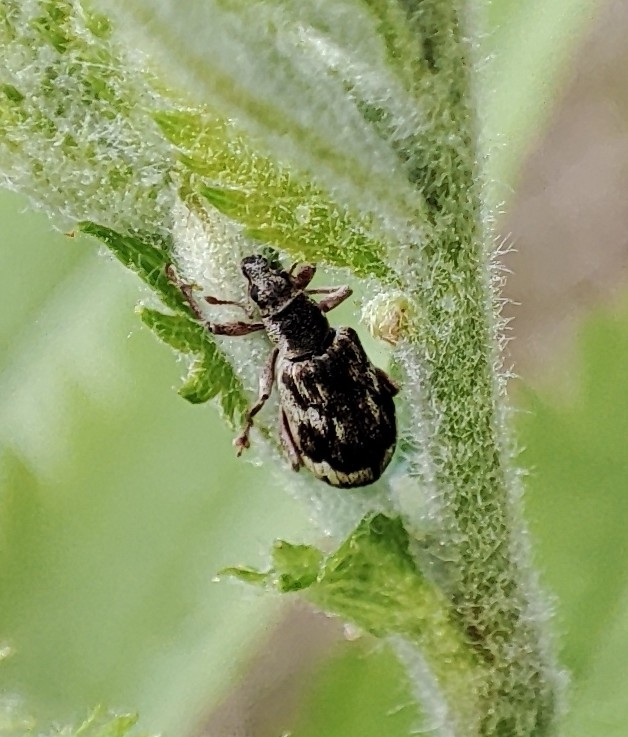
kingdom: Animalia
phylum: Arthropoda
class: Insecta
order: Coleoptera
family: Curculionidae
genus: Polydrusus
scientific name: Polydrusus tereticollis
